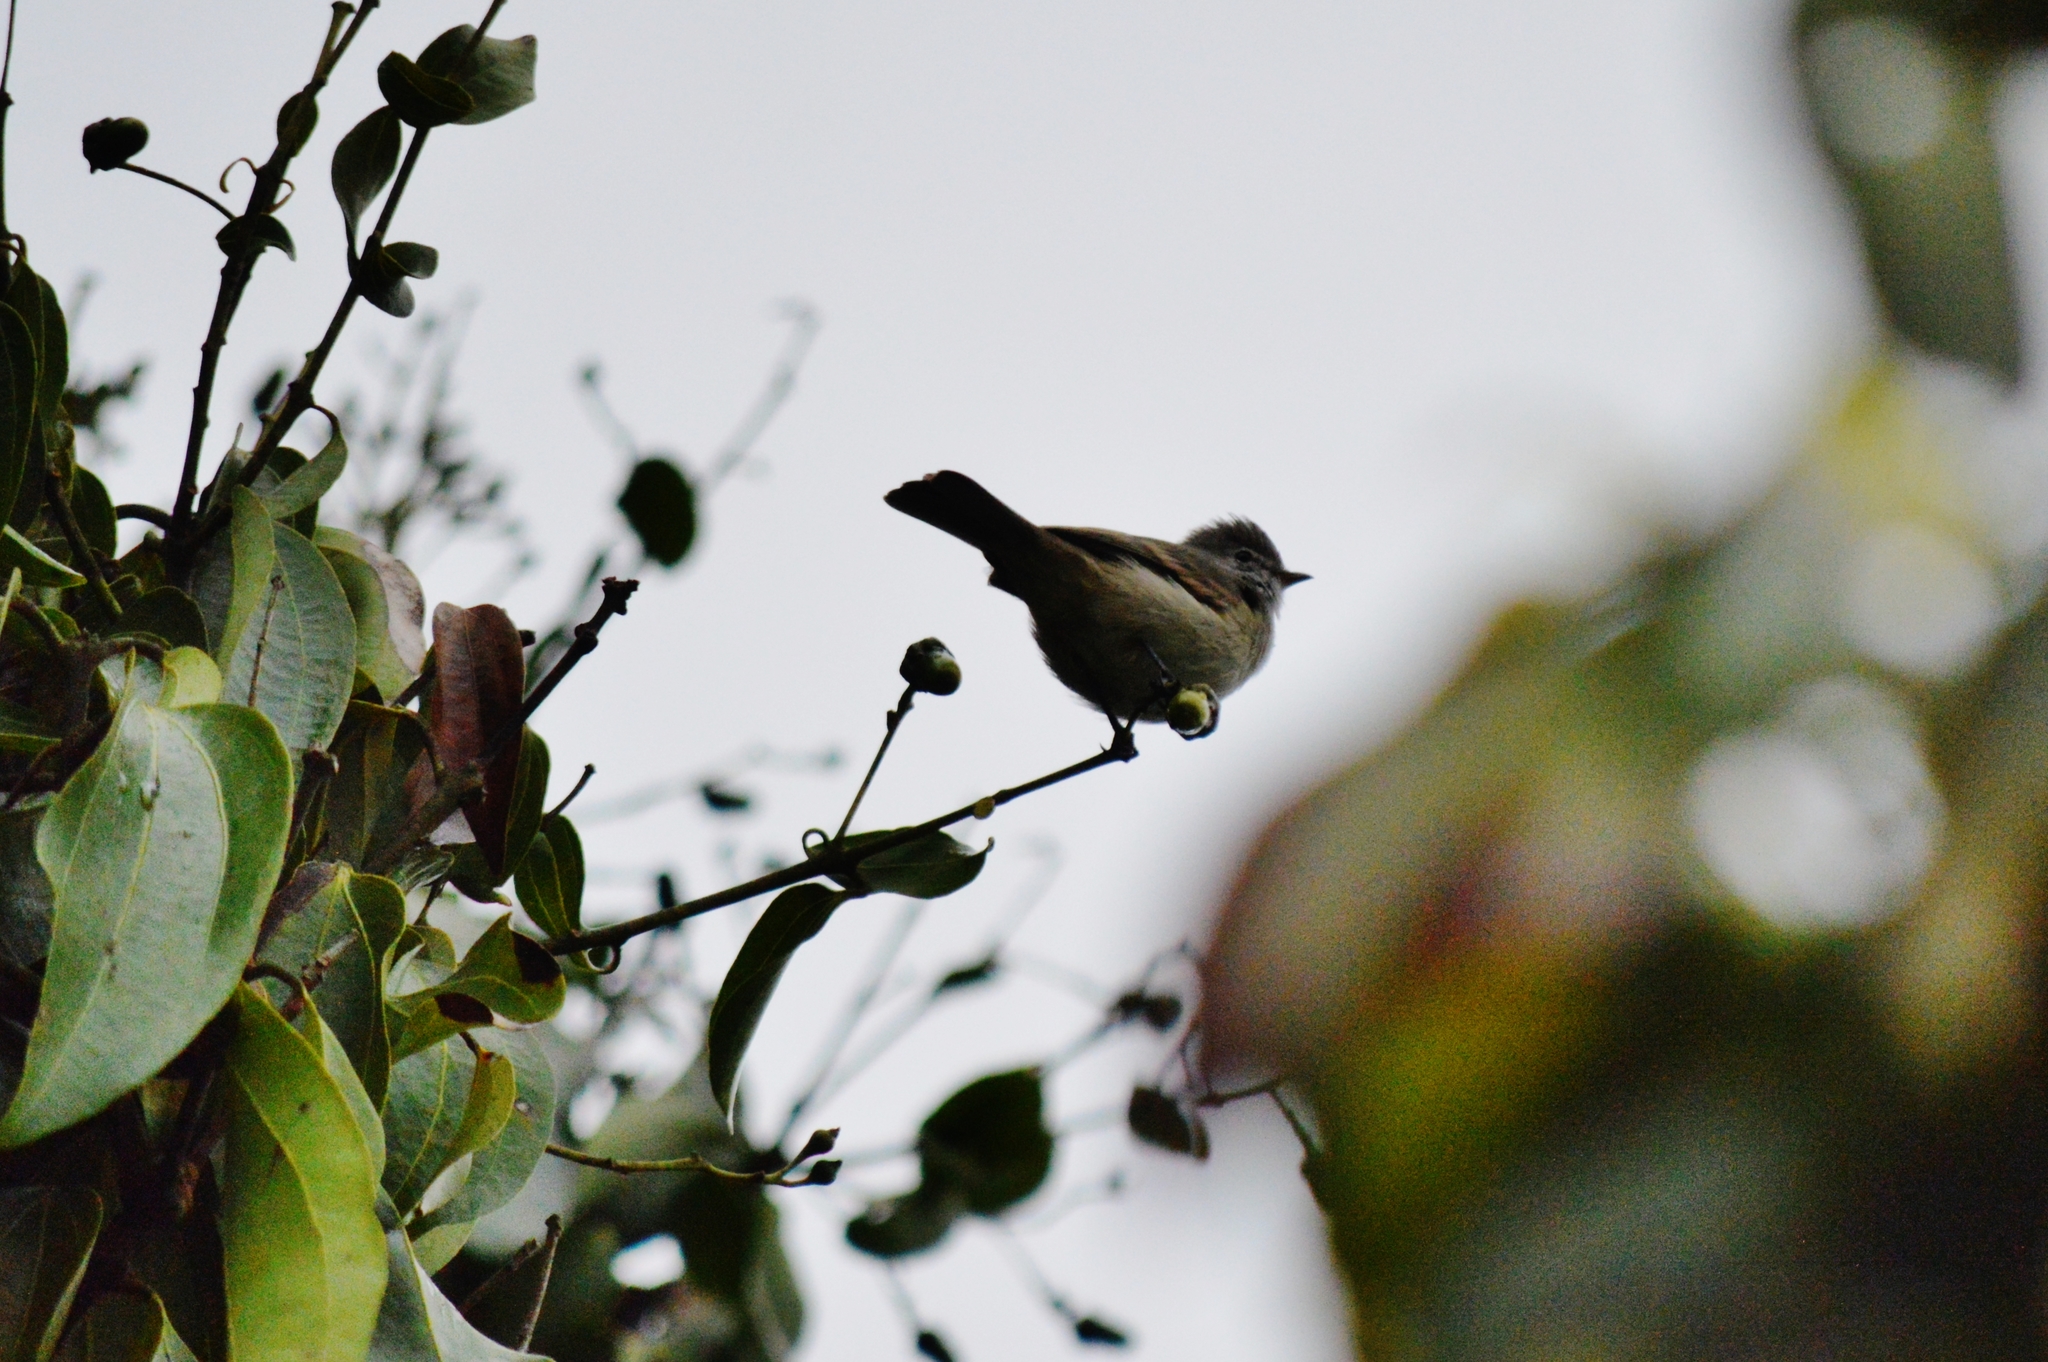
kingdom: Animalia
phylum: Chordata
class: Aves
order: Passeriformes
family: Tyrannidae
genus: Camptostoma
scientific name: Camptostoma obsoletum
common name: Southern beardless-tyrannulet
